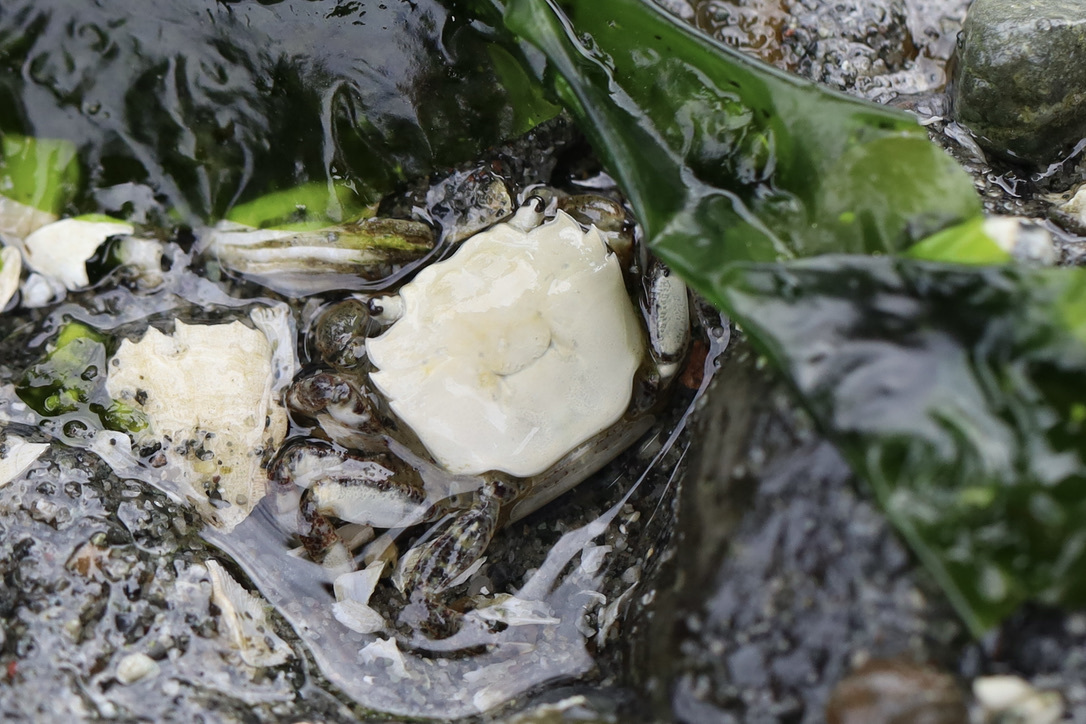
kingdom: Animalia
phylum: Arthropoda
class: Malacostraca
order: Decapoda
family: Varunidae
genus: Hemigrapsus
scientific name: Hemigrapsus oregonensis
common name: Yellow shore crab
